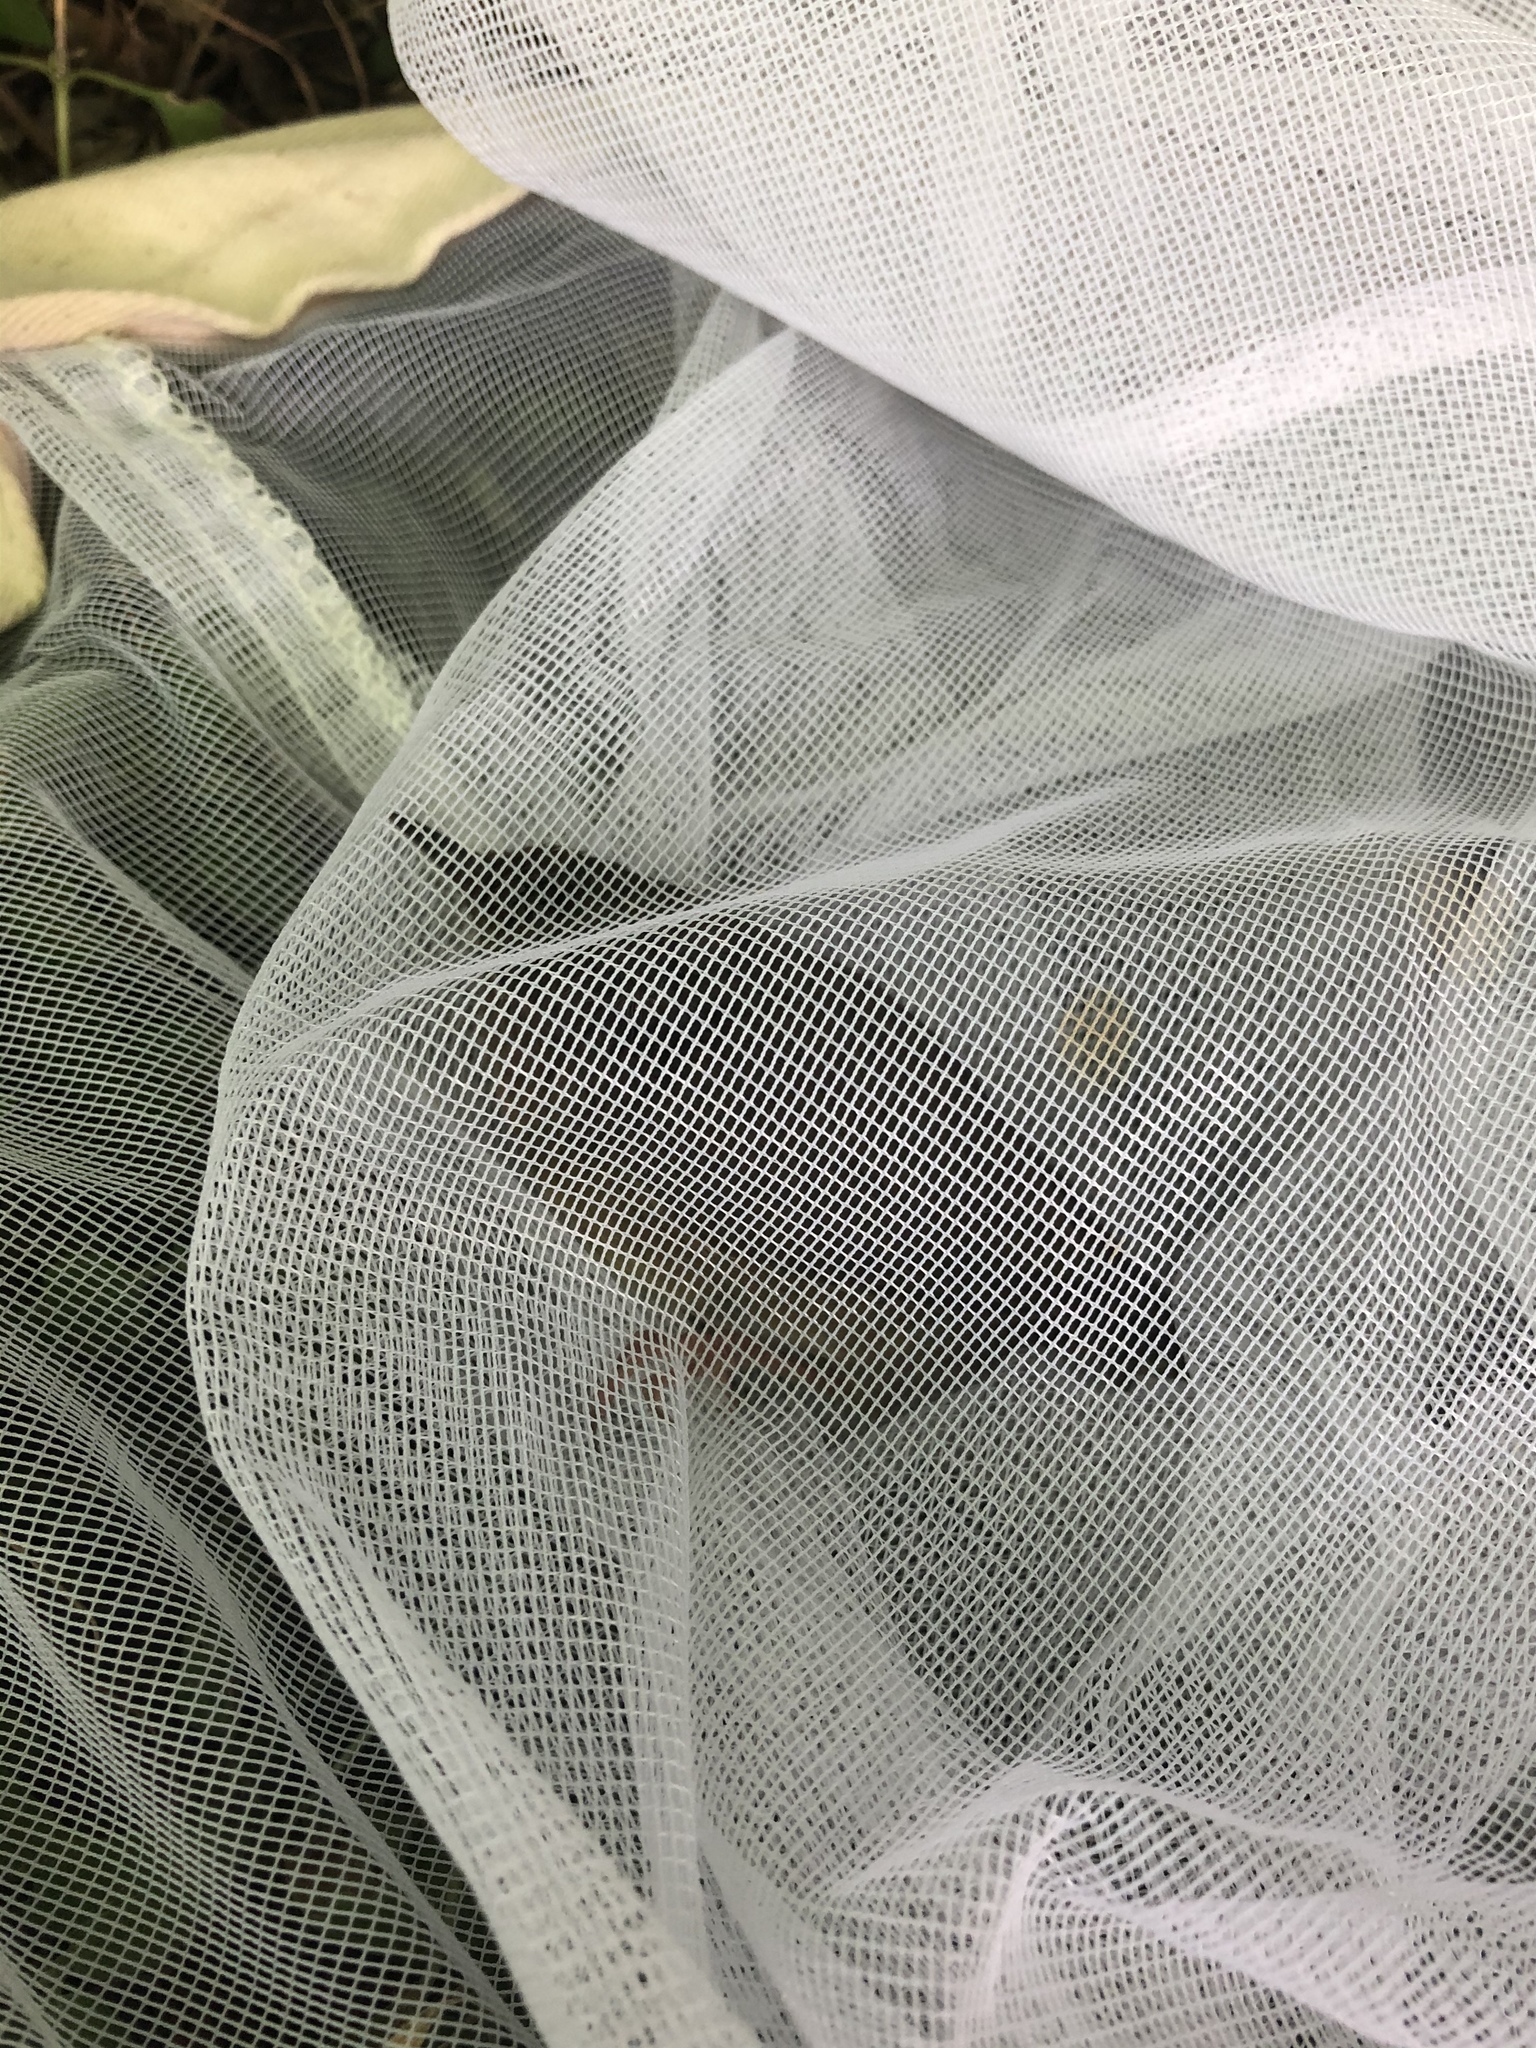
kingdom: Animalia
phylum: Chordata
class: Aves
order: Passeriformes
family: Parulidae
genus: Geothlypis
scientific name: Geothlypis trichas
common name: Common yellowthroat
